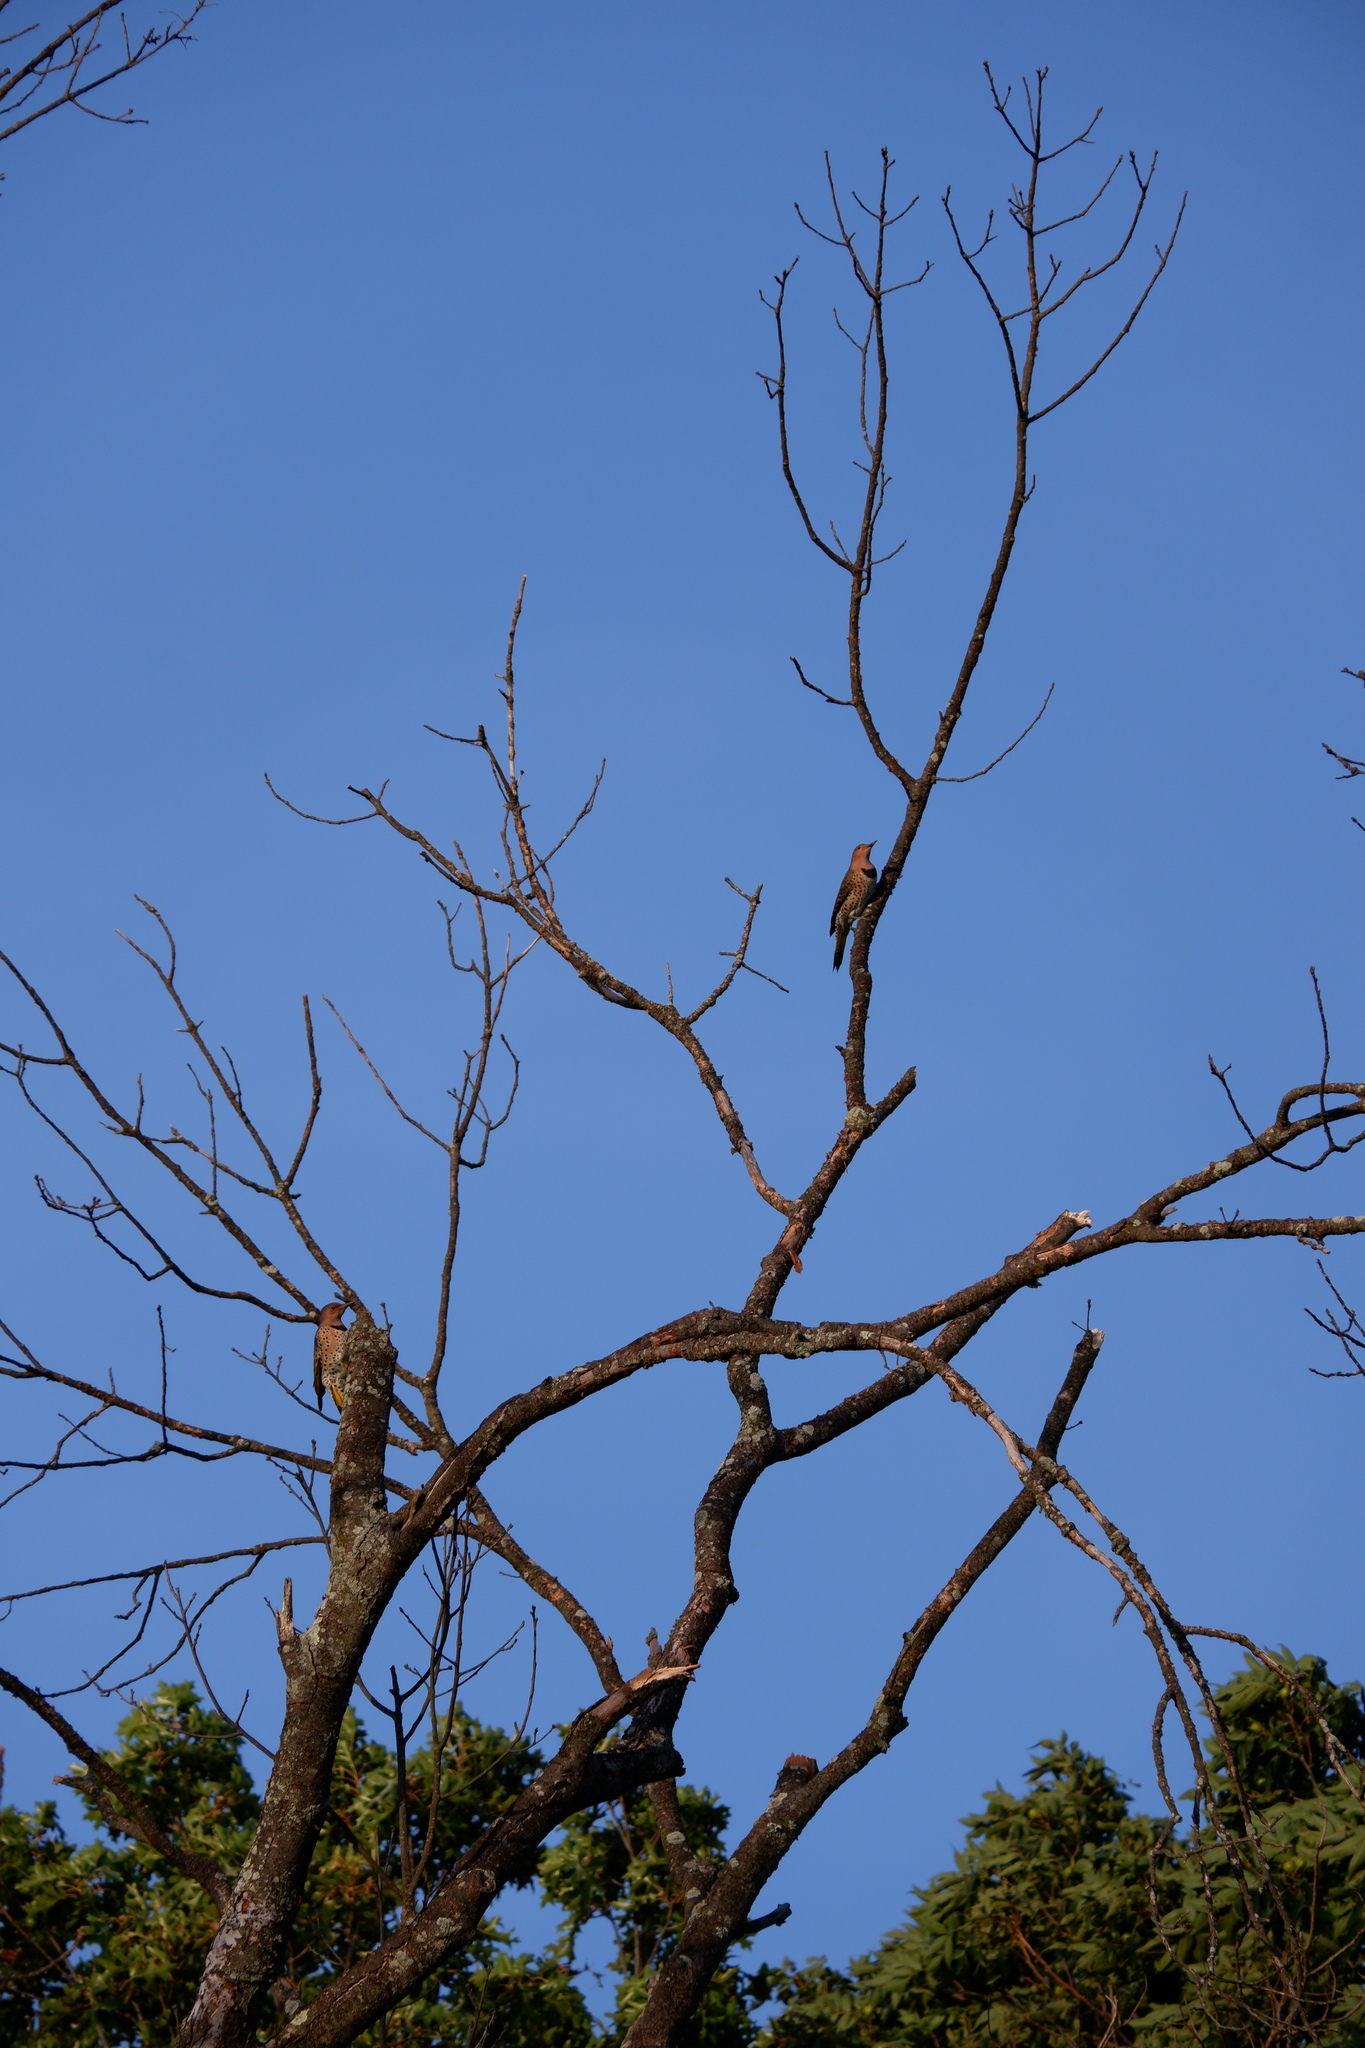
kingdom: Animalia
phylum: Chordata
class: Aves
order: Piciformes
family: Picidae
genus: Colaptes
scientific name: Colaptes auratus
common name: Northern flicker
